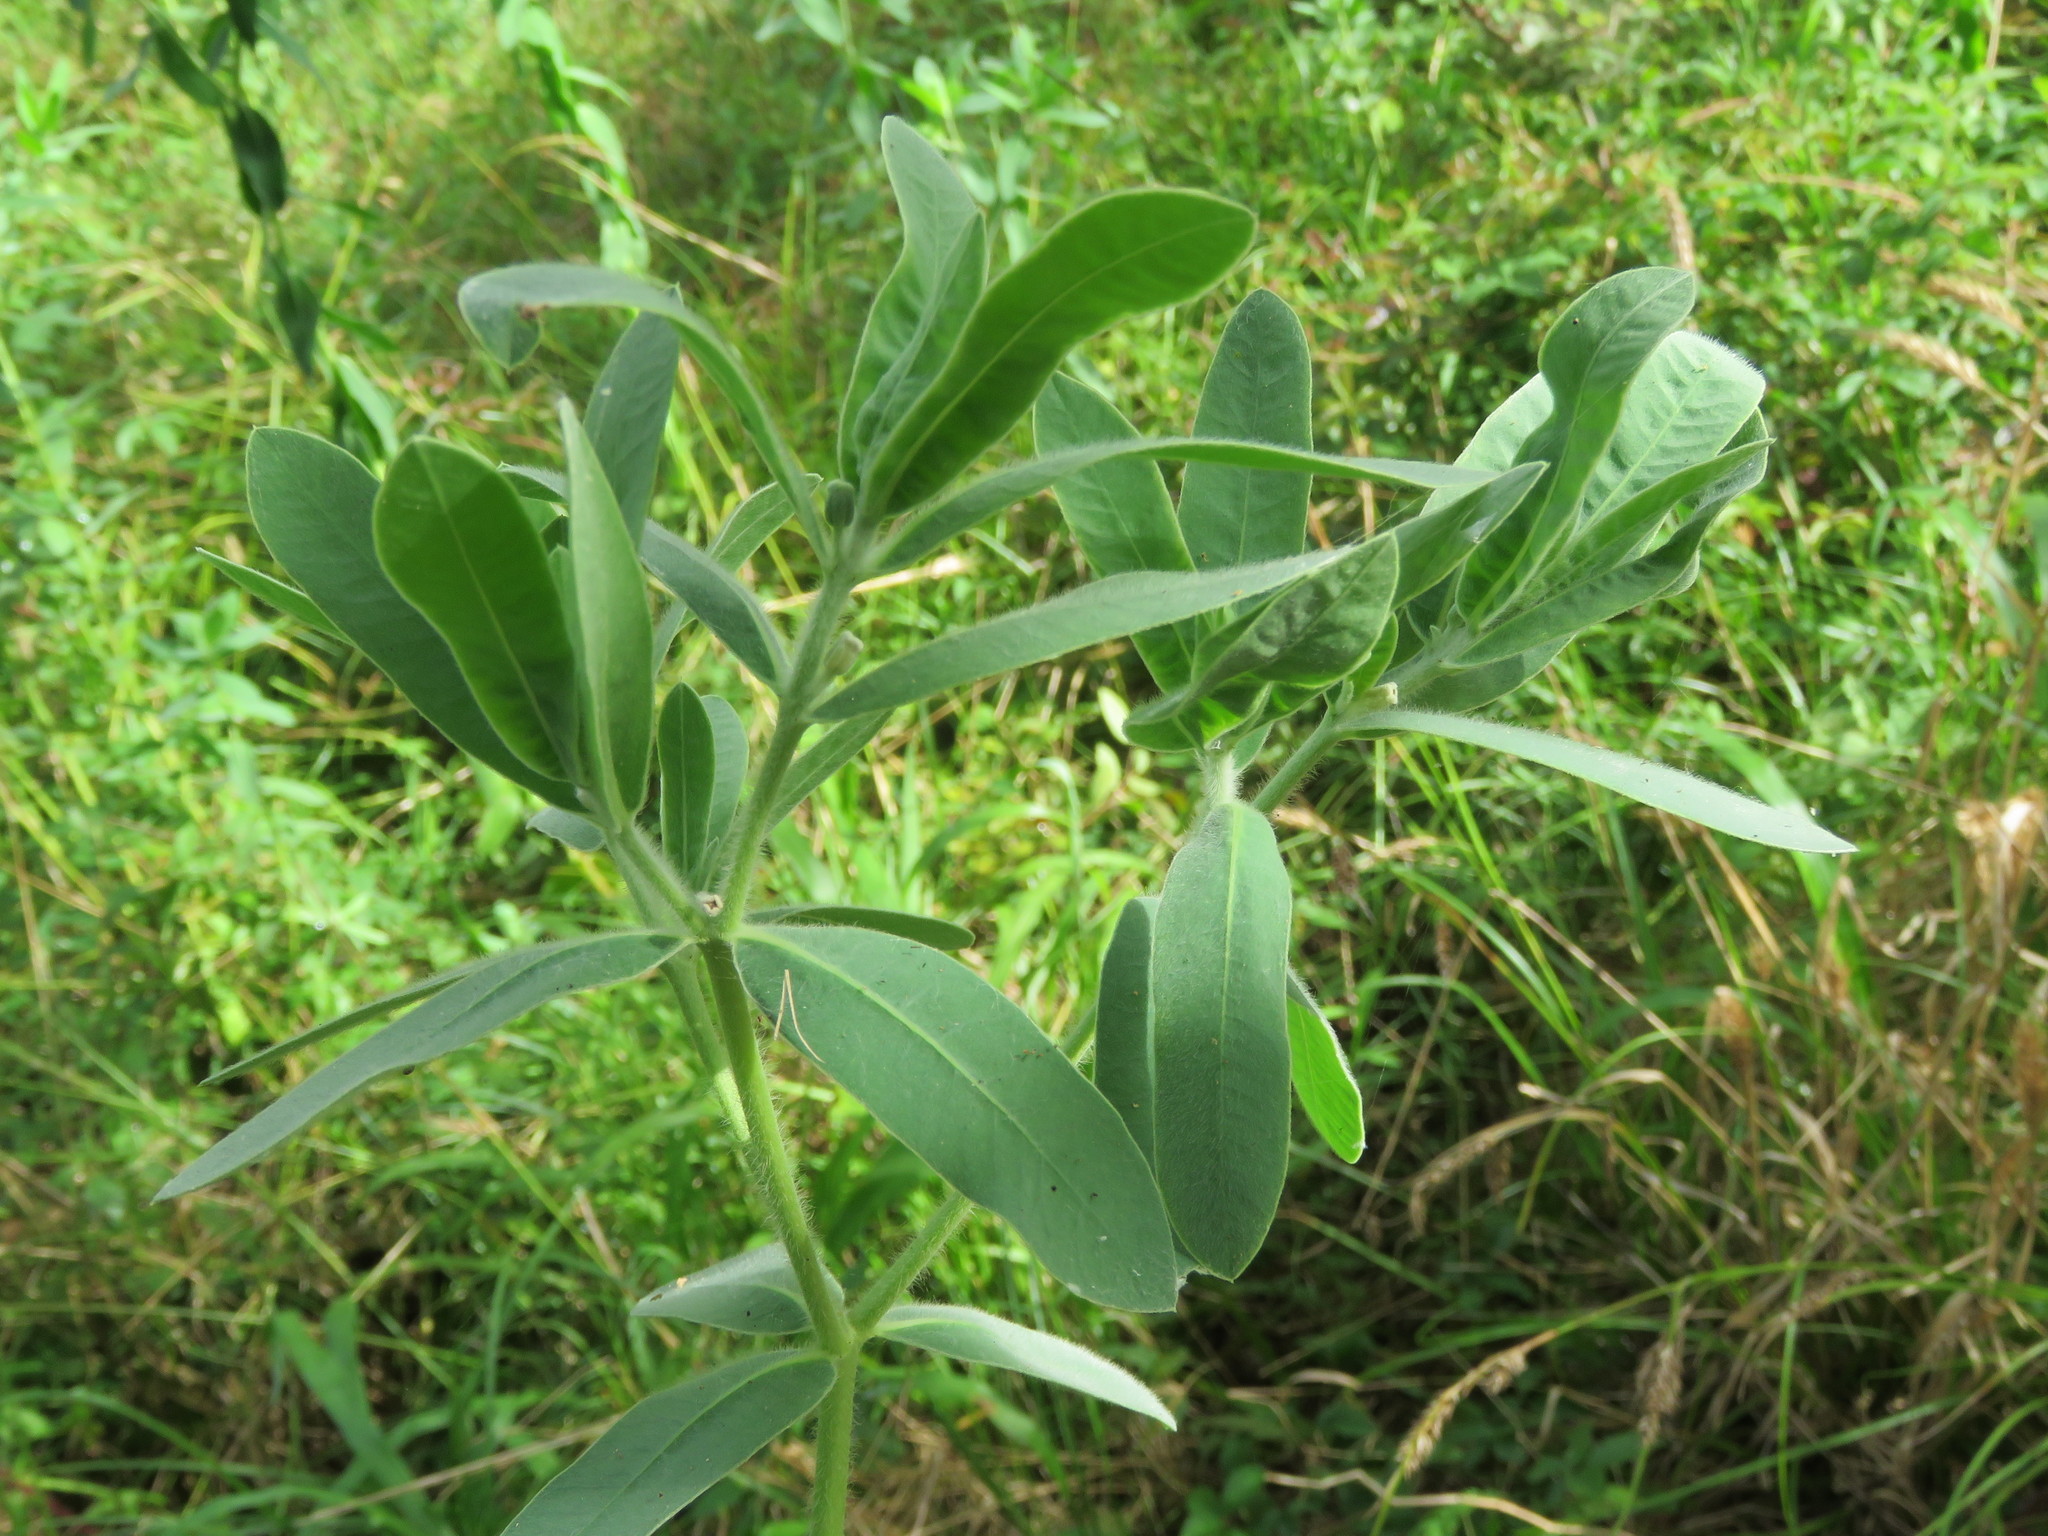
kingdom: Plantae
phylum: Tracheophyta
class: Magnoliopsida
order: Malpighiales
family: Euphorbiaceae
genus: Euphorbia
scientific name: Euphorbia bicolor
